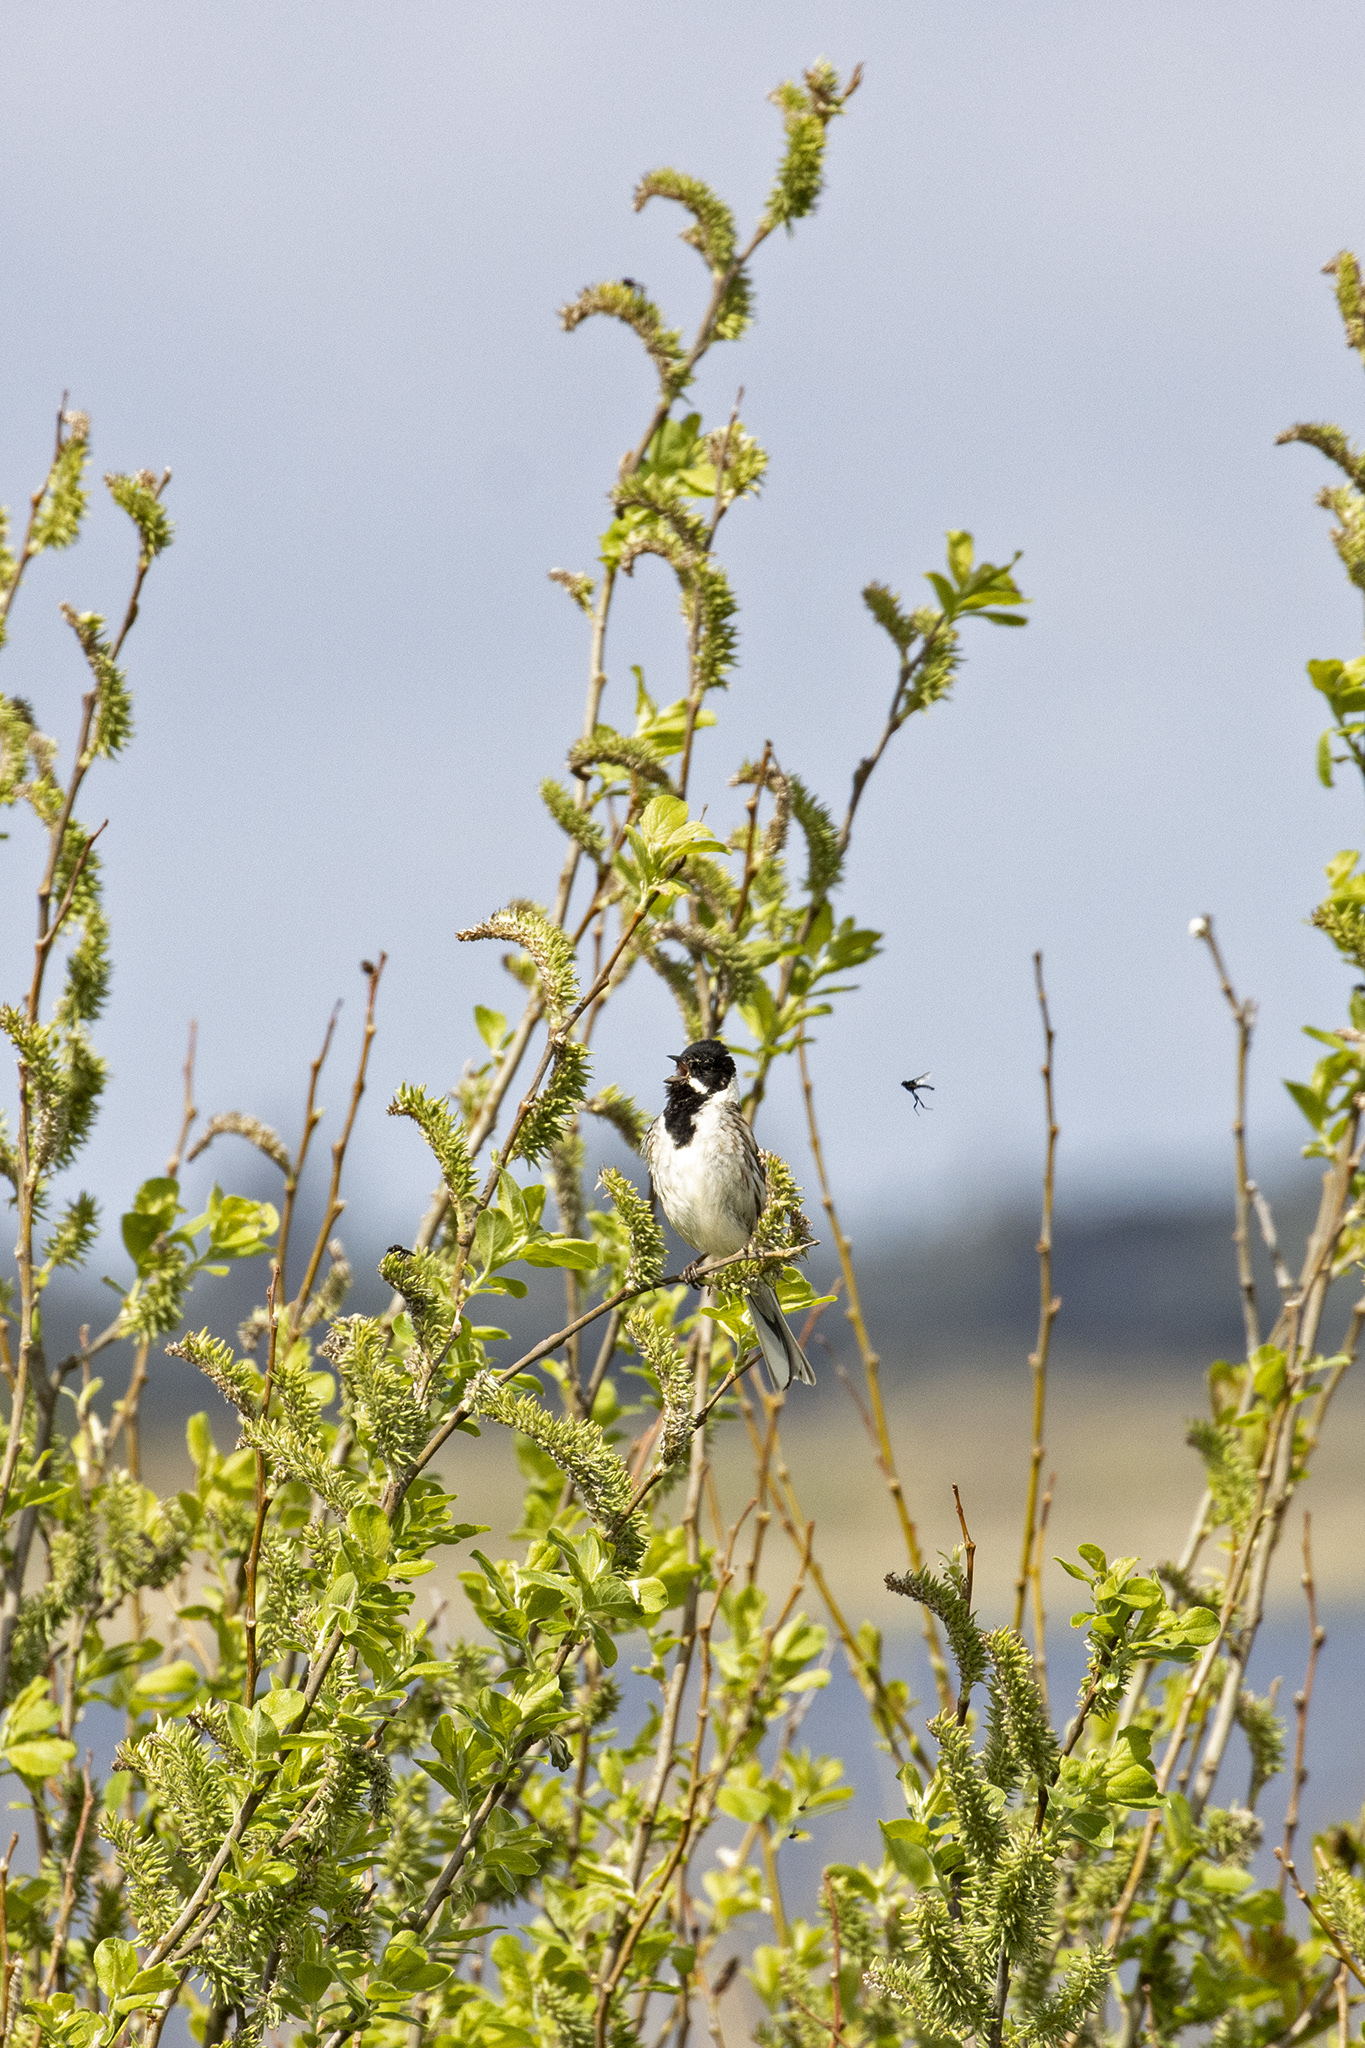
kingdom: Animalia
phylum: Chordata
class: Aves
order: Passeriformes
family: Emberizidae
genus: Emberiza
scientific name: Emberiza schoeniclus
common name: Reed bunting
